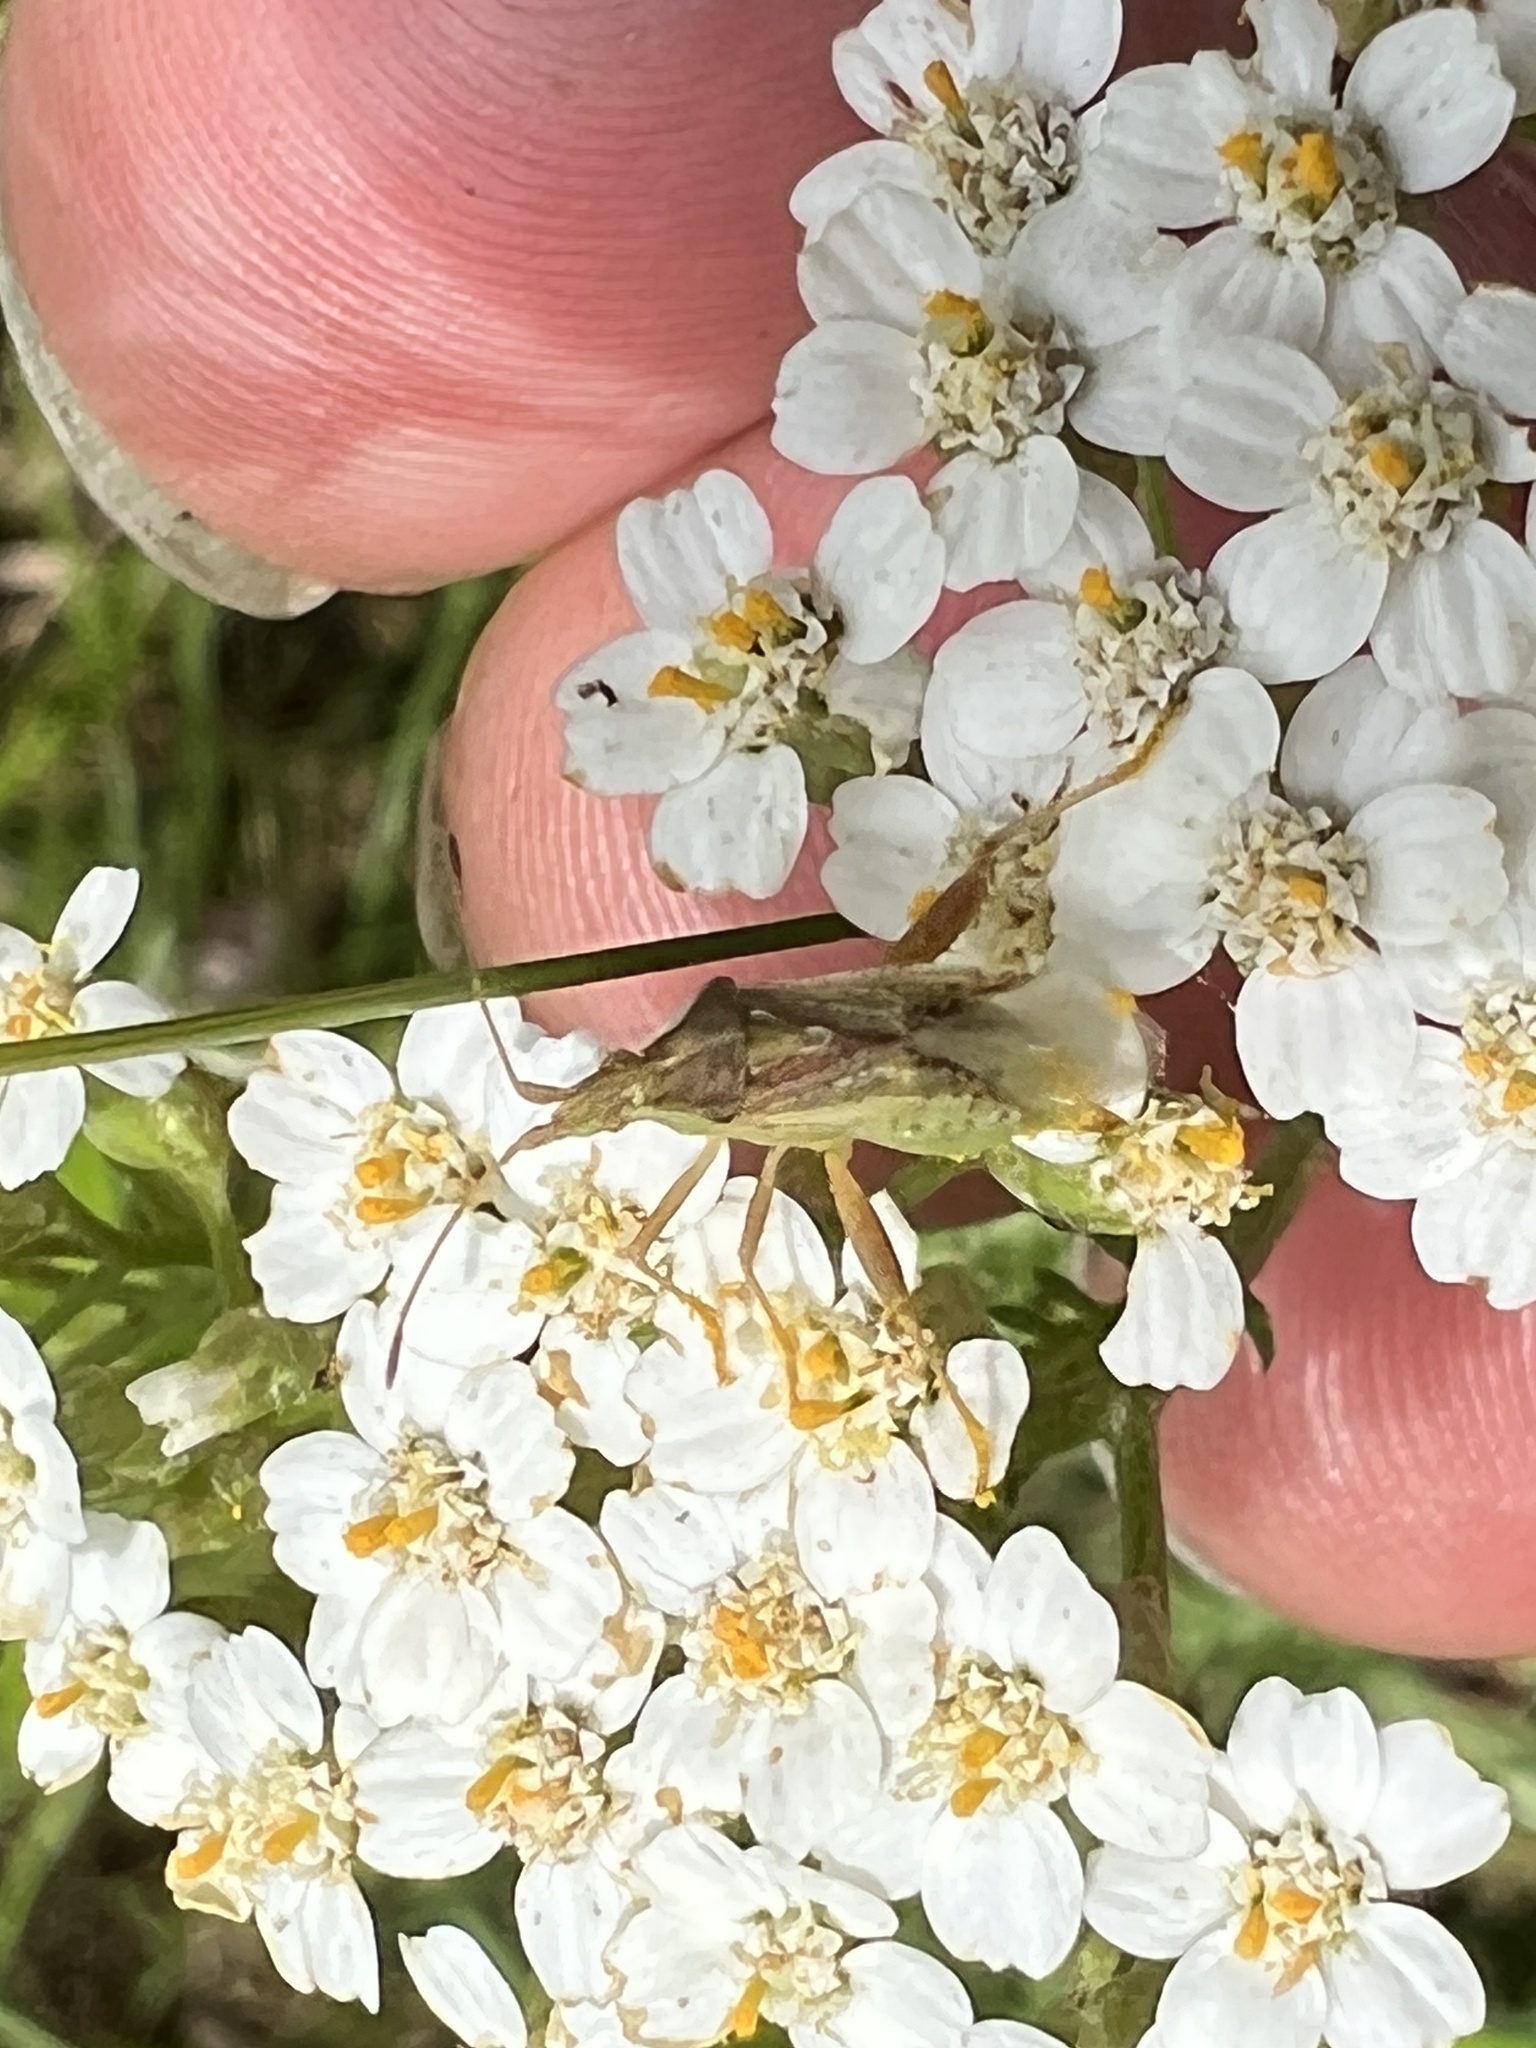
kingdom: Animalia
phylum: Arthropoda
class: Insecta
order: Hemiptera
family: Rhopalidae
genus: Harmostes
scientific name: Harmostes reflexulus
